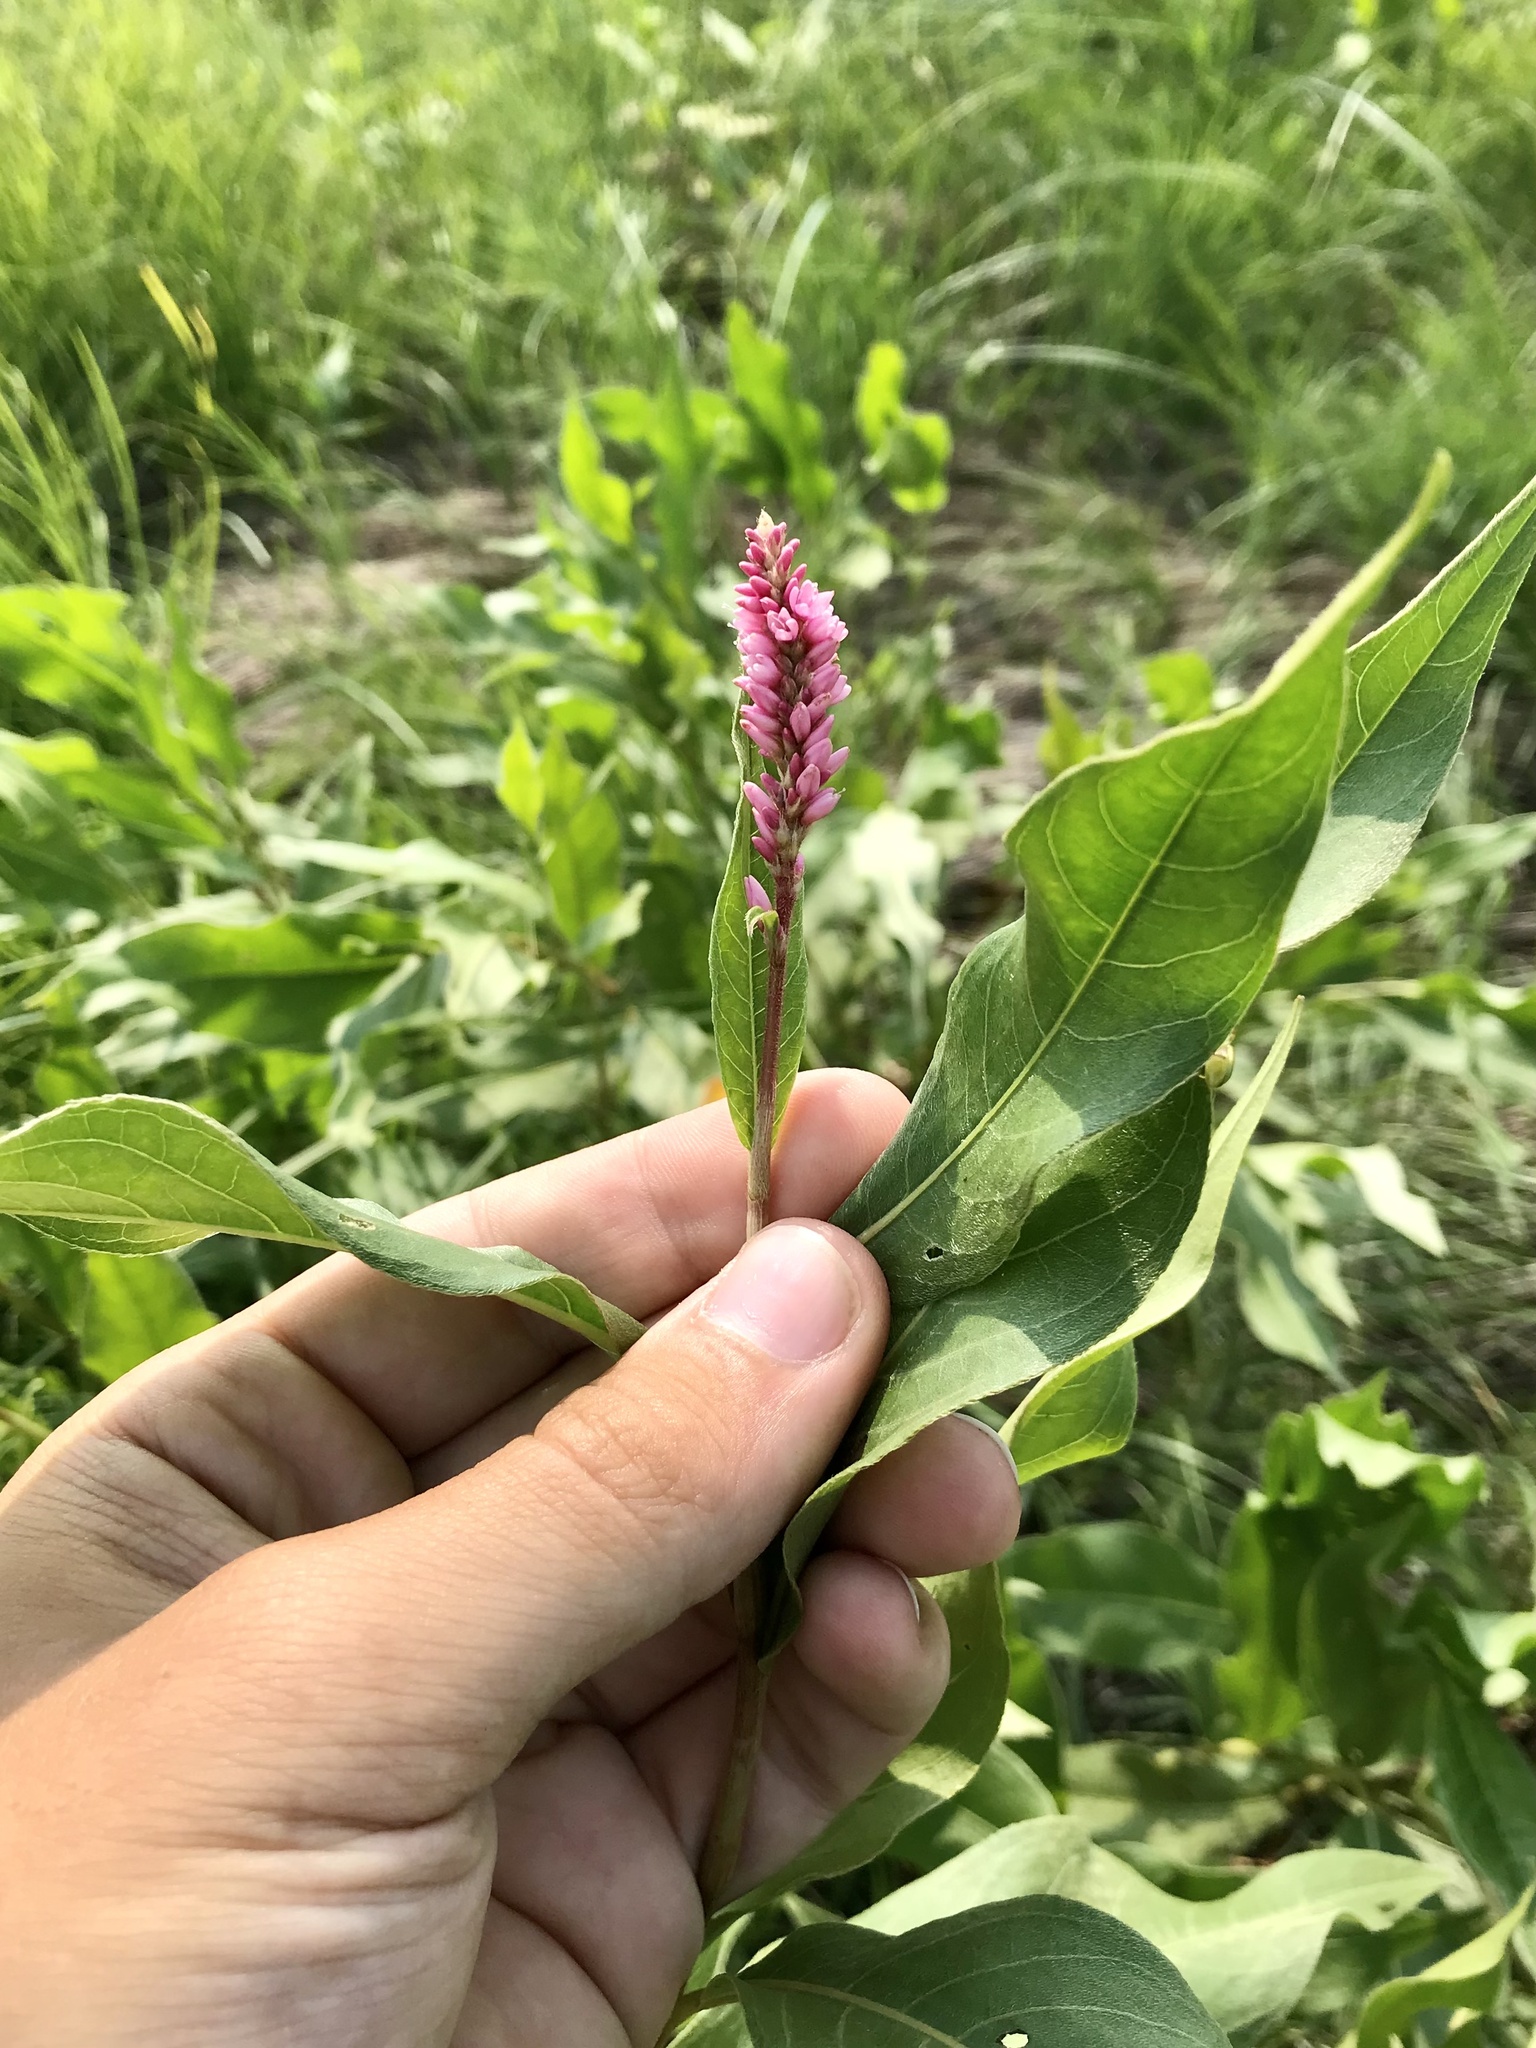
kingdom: Plantae
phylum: Tracheophyta
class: Magnoliopsida
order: Caryophyllales
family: Polygonaceae
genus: Persicaria
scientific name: Persicaria amphibia
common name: Amphibious bistort
